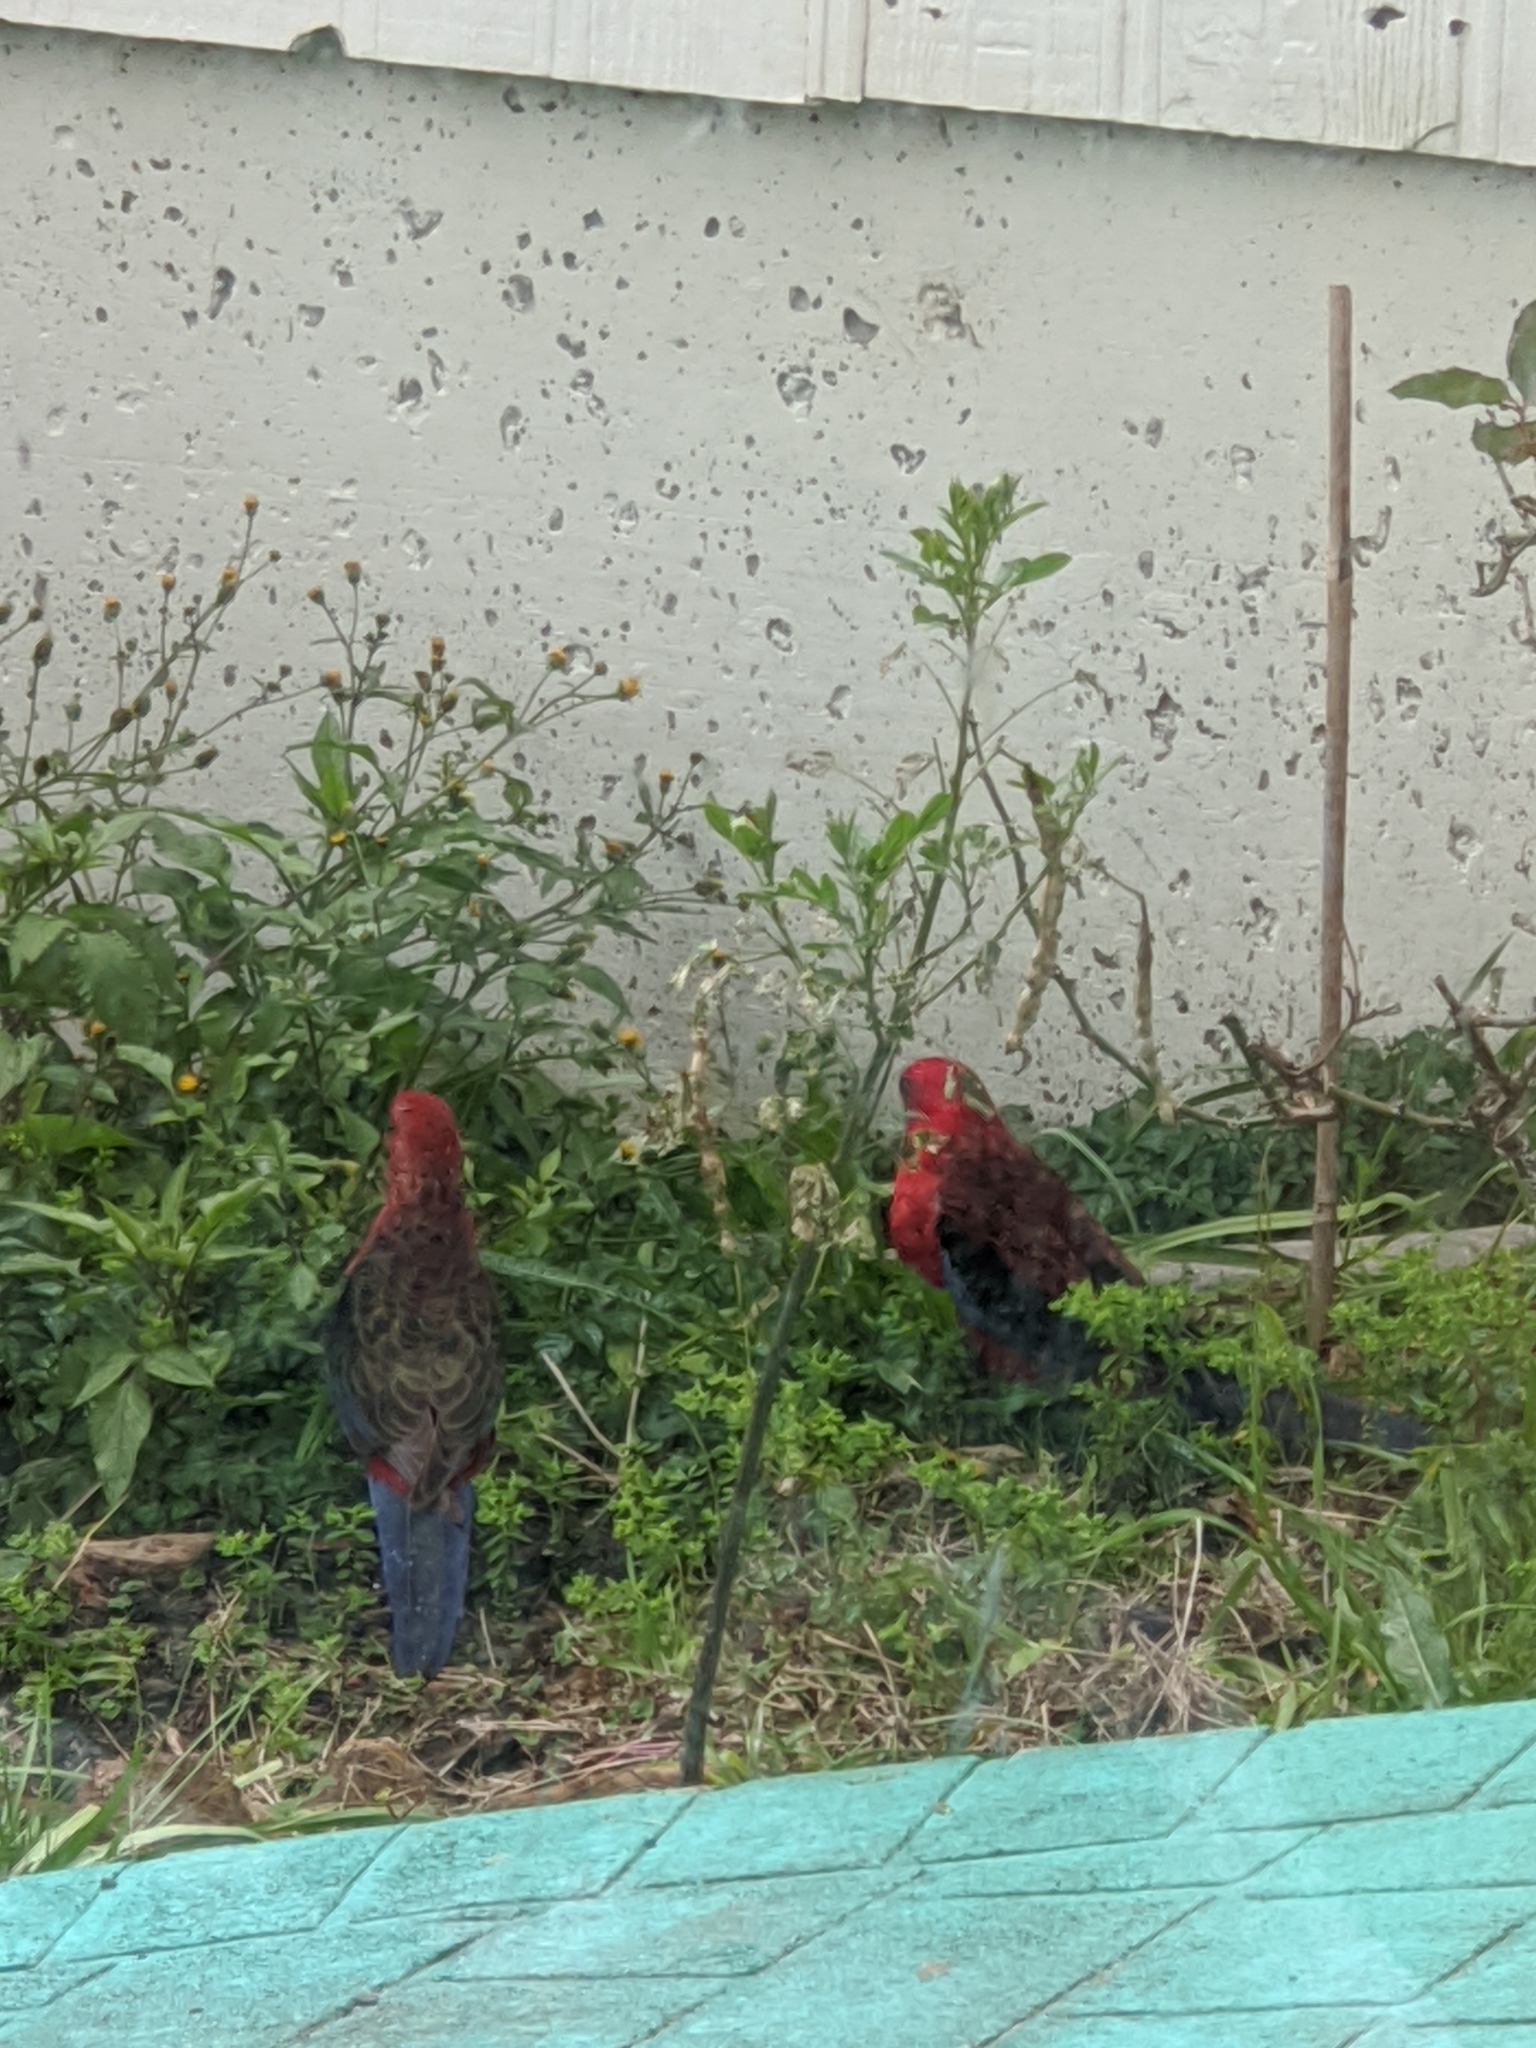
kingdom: Animalia
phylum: Chordata
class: Aves
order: Psittaciformes
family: Psittacidae
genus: Platycercus
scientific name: Platycercus elegans
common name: Crimson rosella
